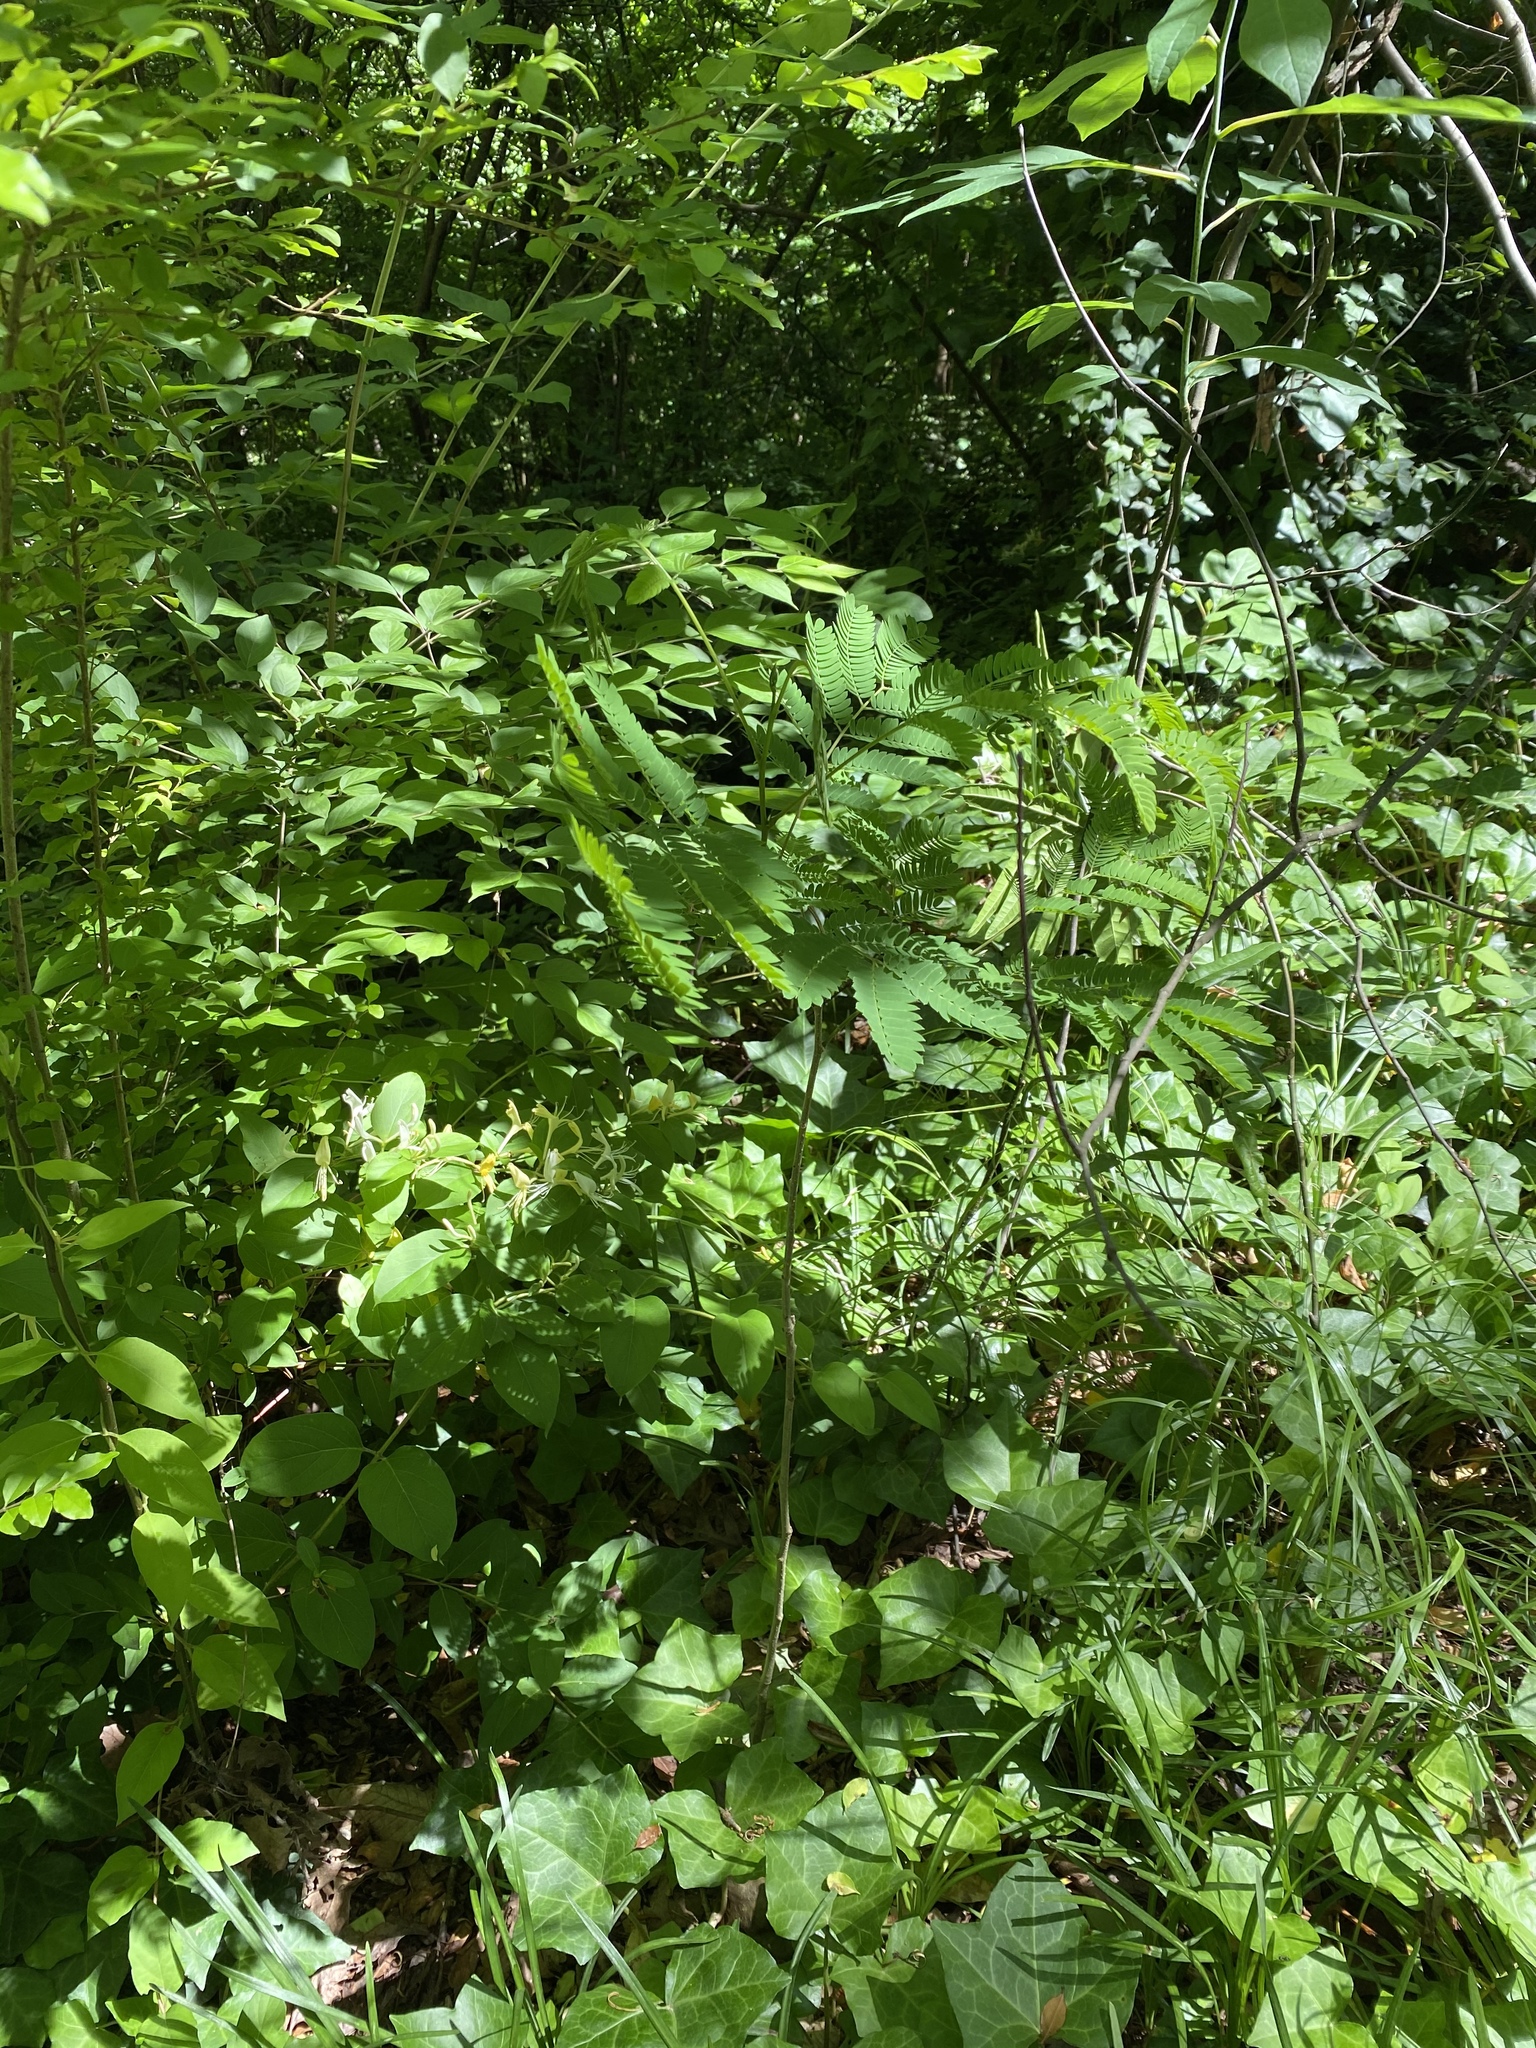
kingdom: Plantae
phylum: Tracheophyta
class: Magnoliopsida
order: Fabales
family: Fabaceae
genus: Albizia
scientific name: Albizia julibrissin
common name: Silktree
